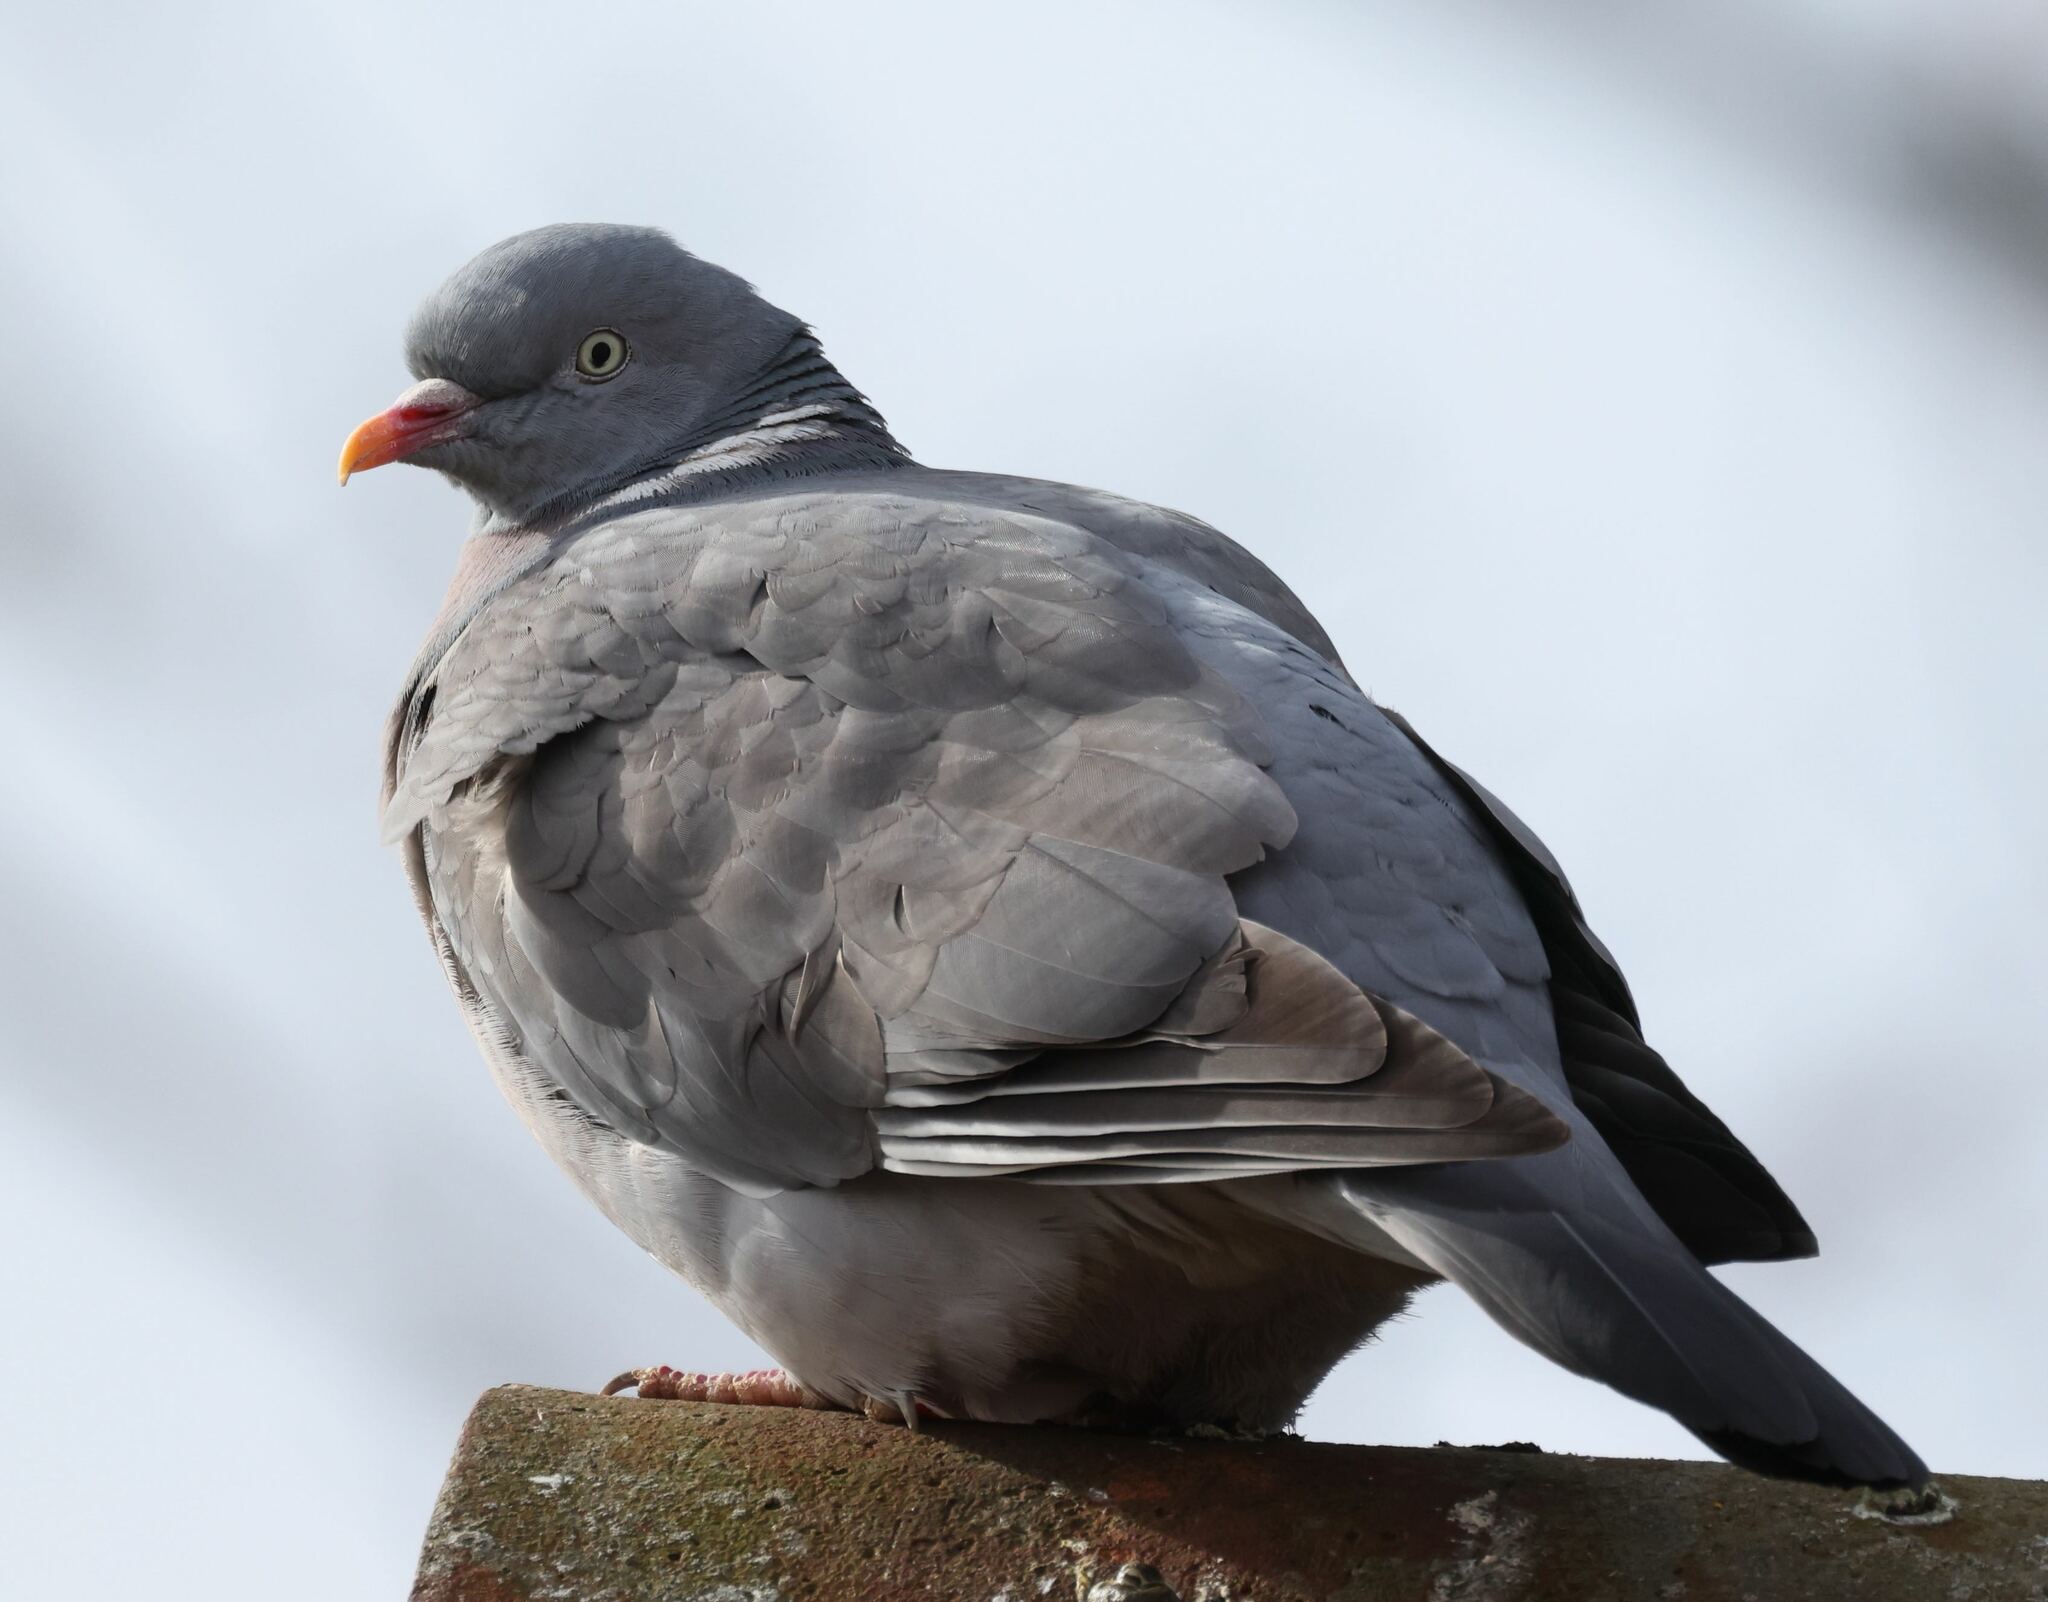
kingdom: Animalia
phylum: Chordata
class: Aves
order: Columbiformes
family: Columbidae
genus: Columba
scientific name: Columba palumbus
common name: Common wood pigeon
